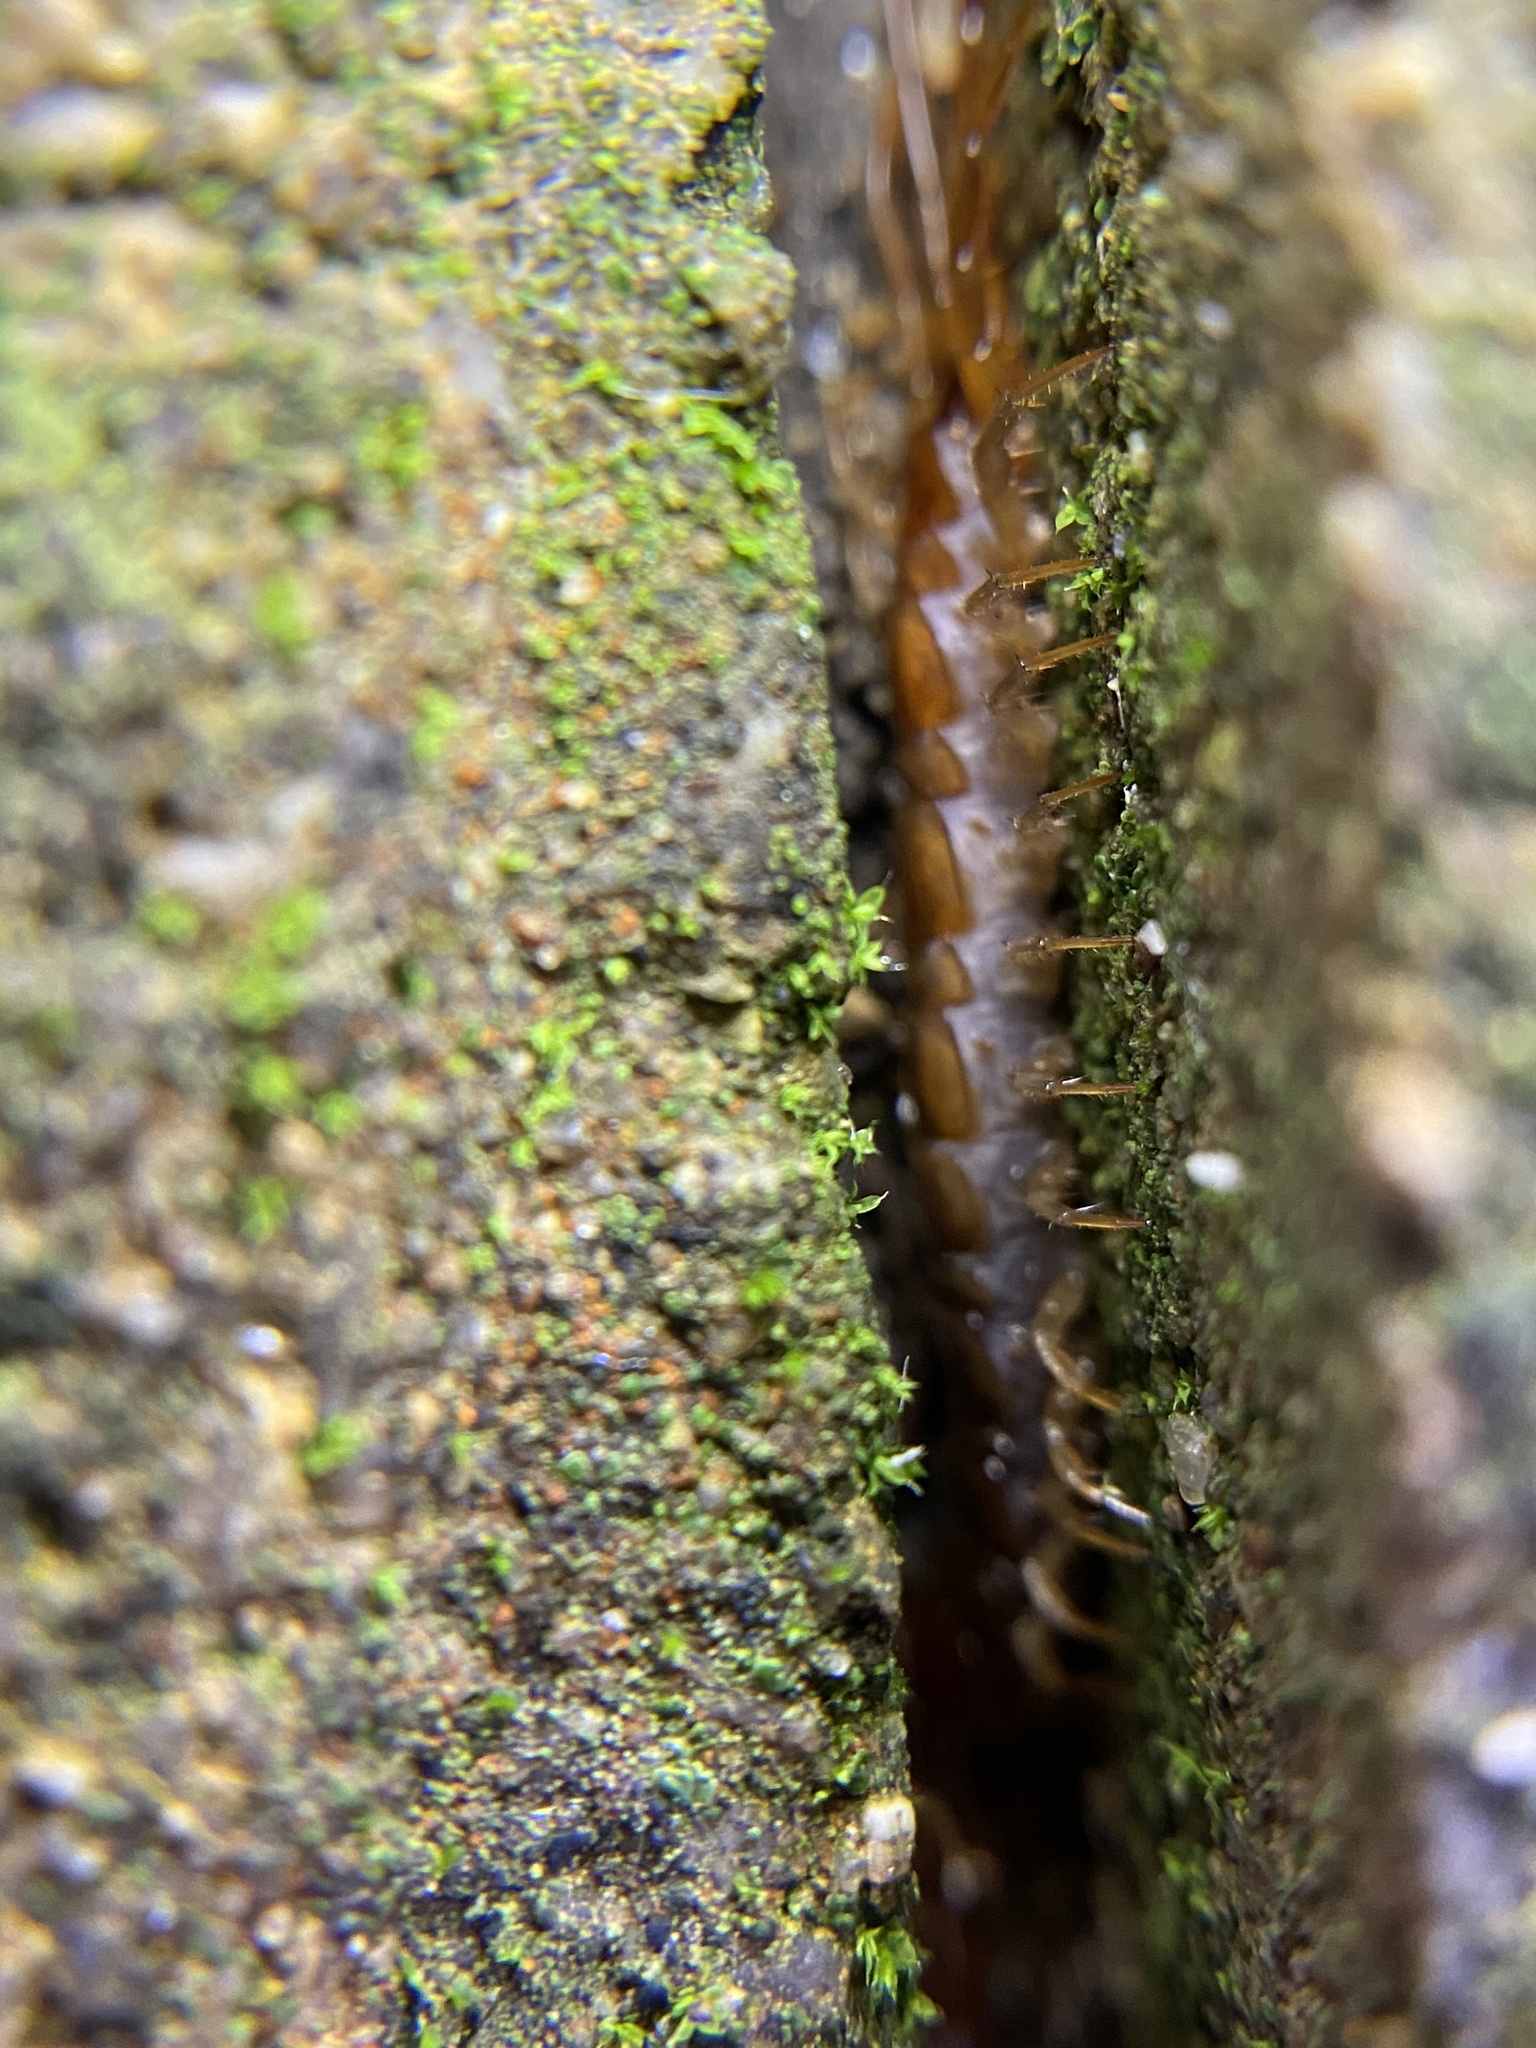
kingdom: Animalia
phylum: Arthropoda
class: Chilopoda
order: Lithobiomorpha
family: Lithobiidae
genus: Lithobius
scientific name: Lithobius forficatus
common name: Centipede
